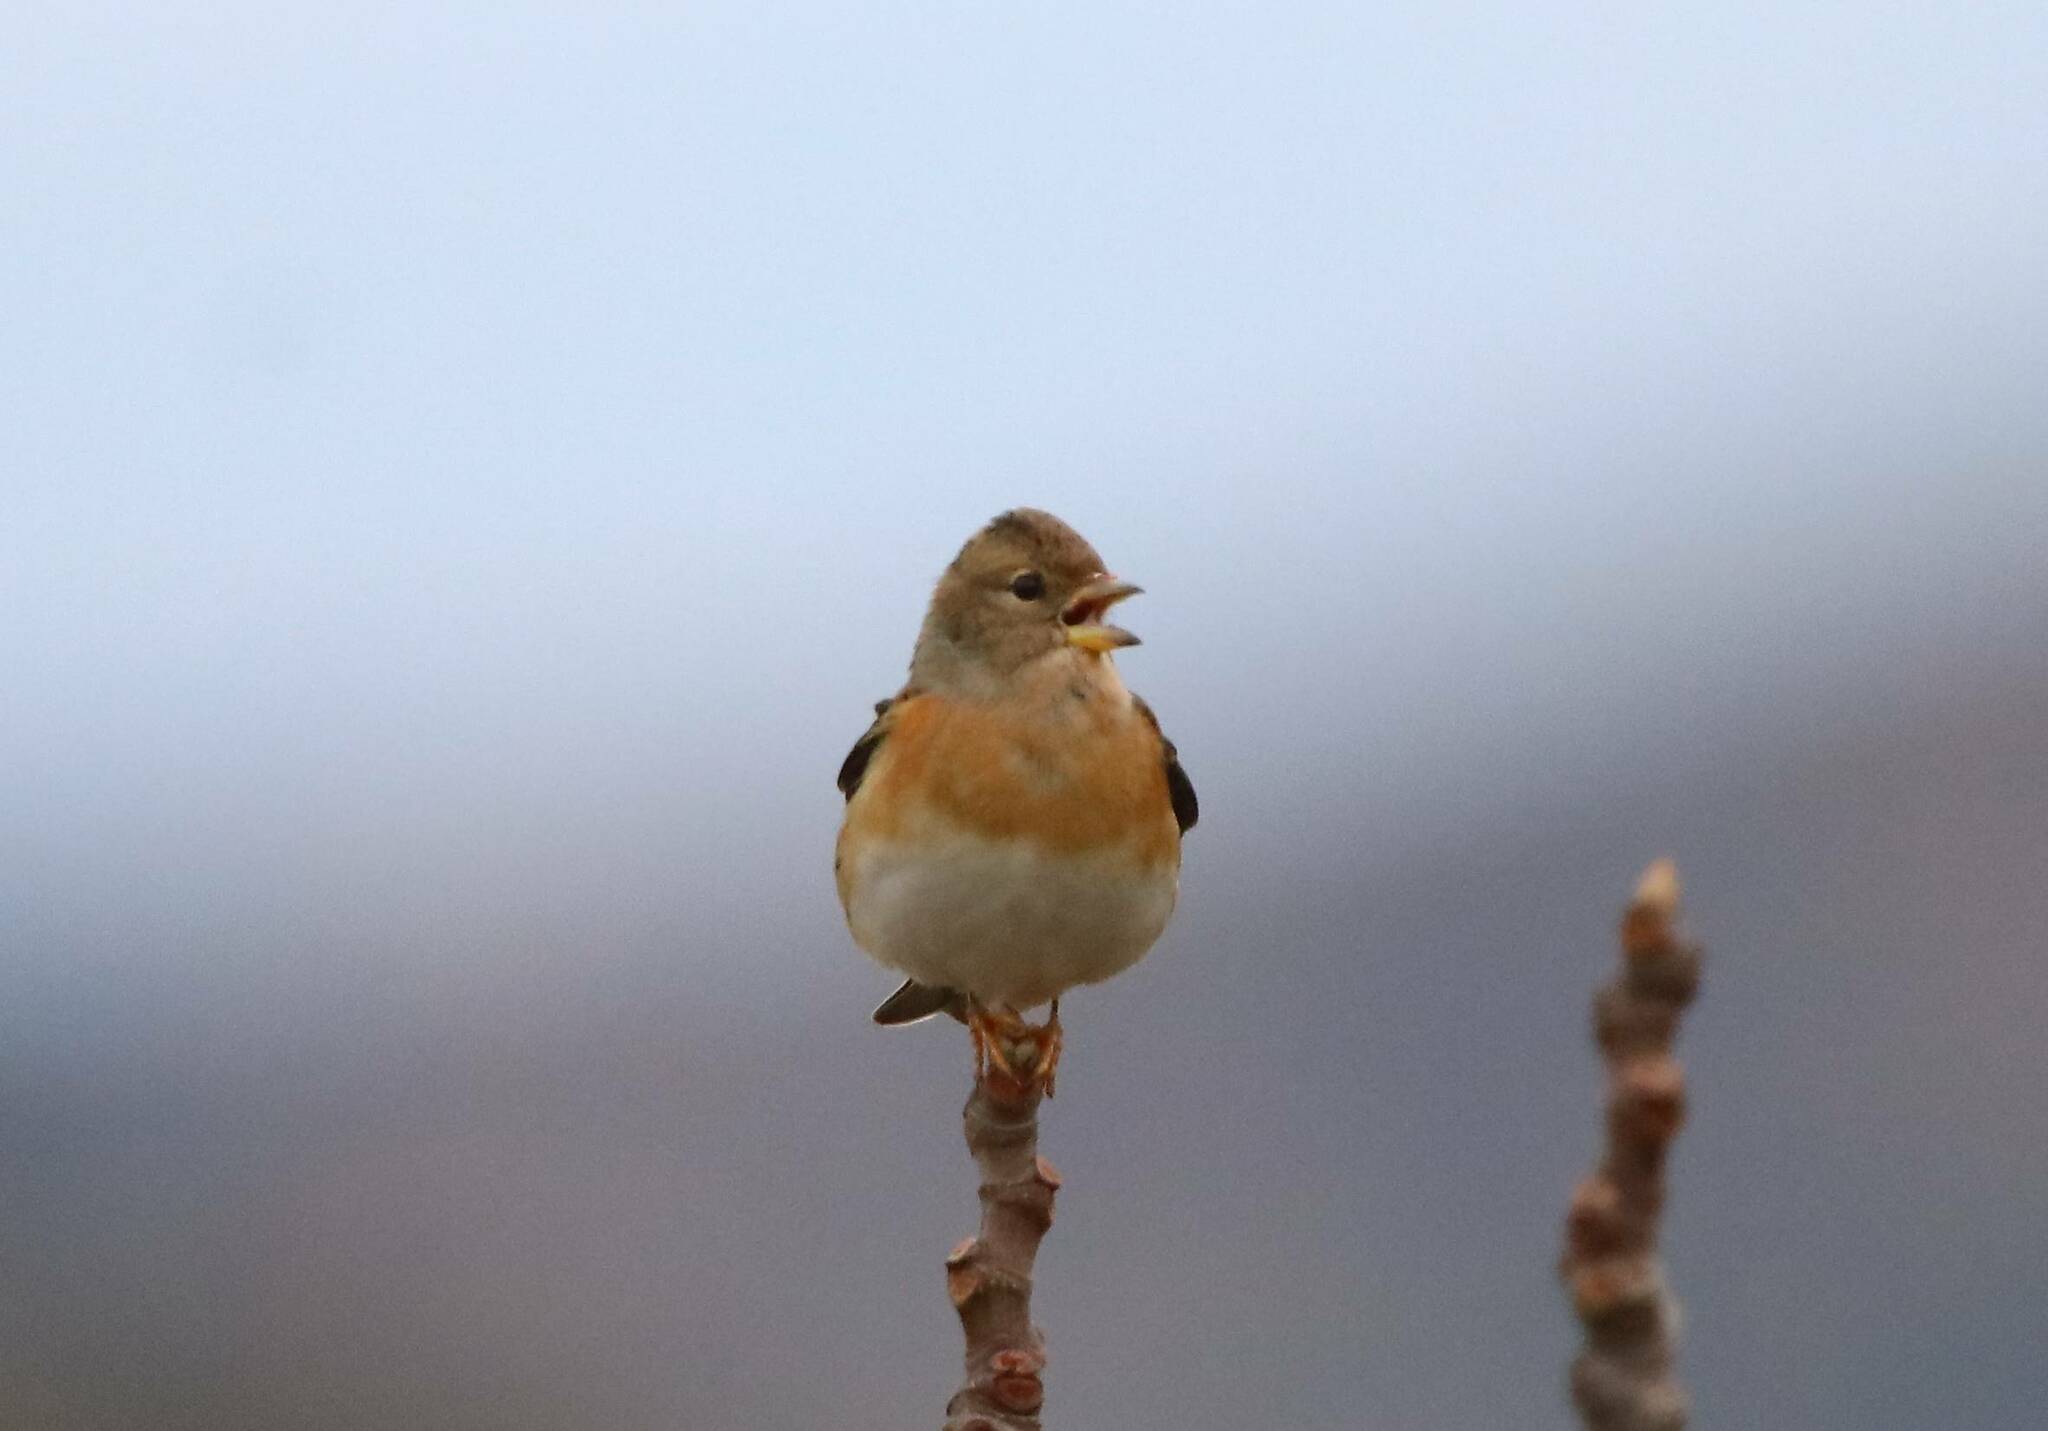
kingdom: Animalia
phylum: Chordata
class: Aves
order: Passeriformes
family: Fringillidae
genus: Fringilla
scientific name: Fringilla montifringilla
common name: Brambling
